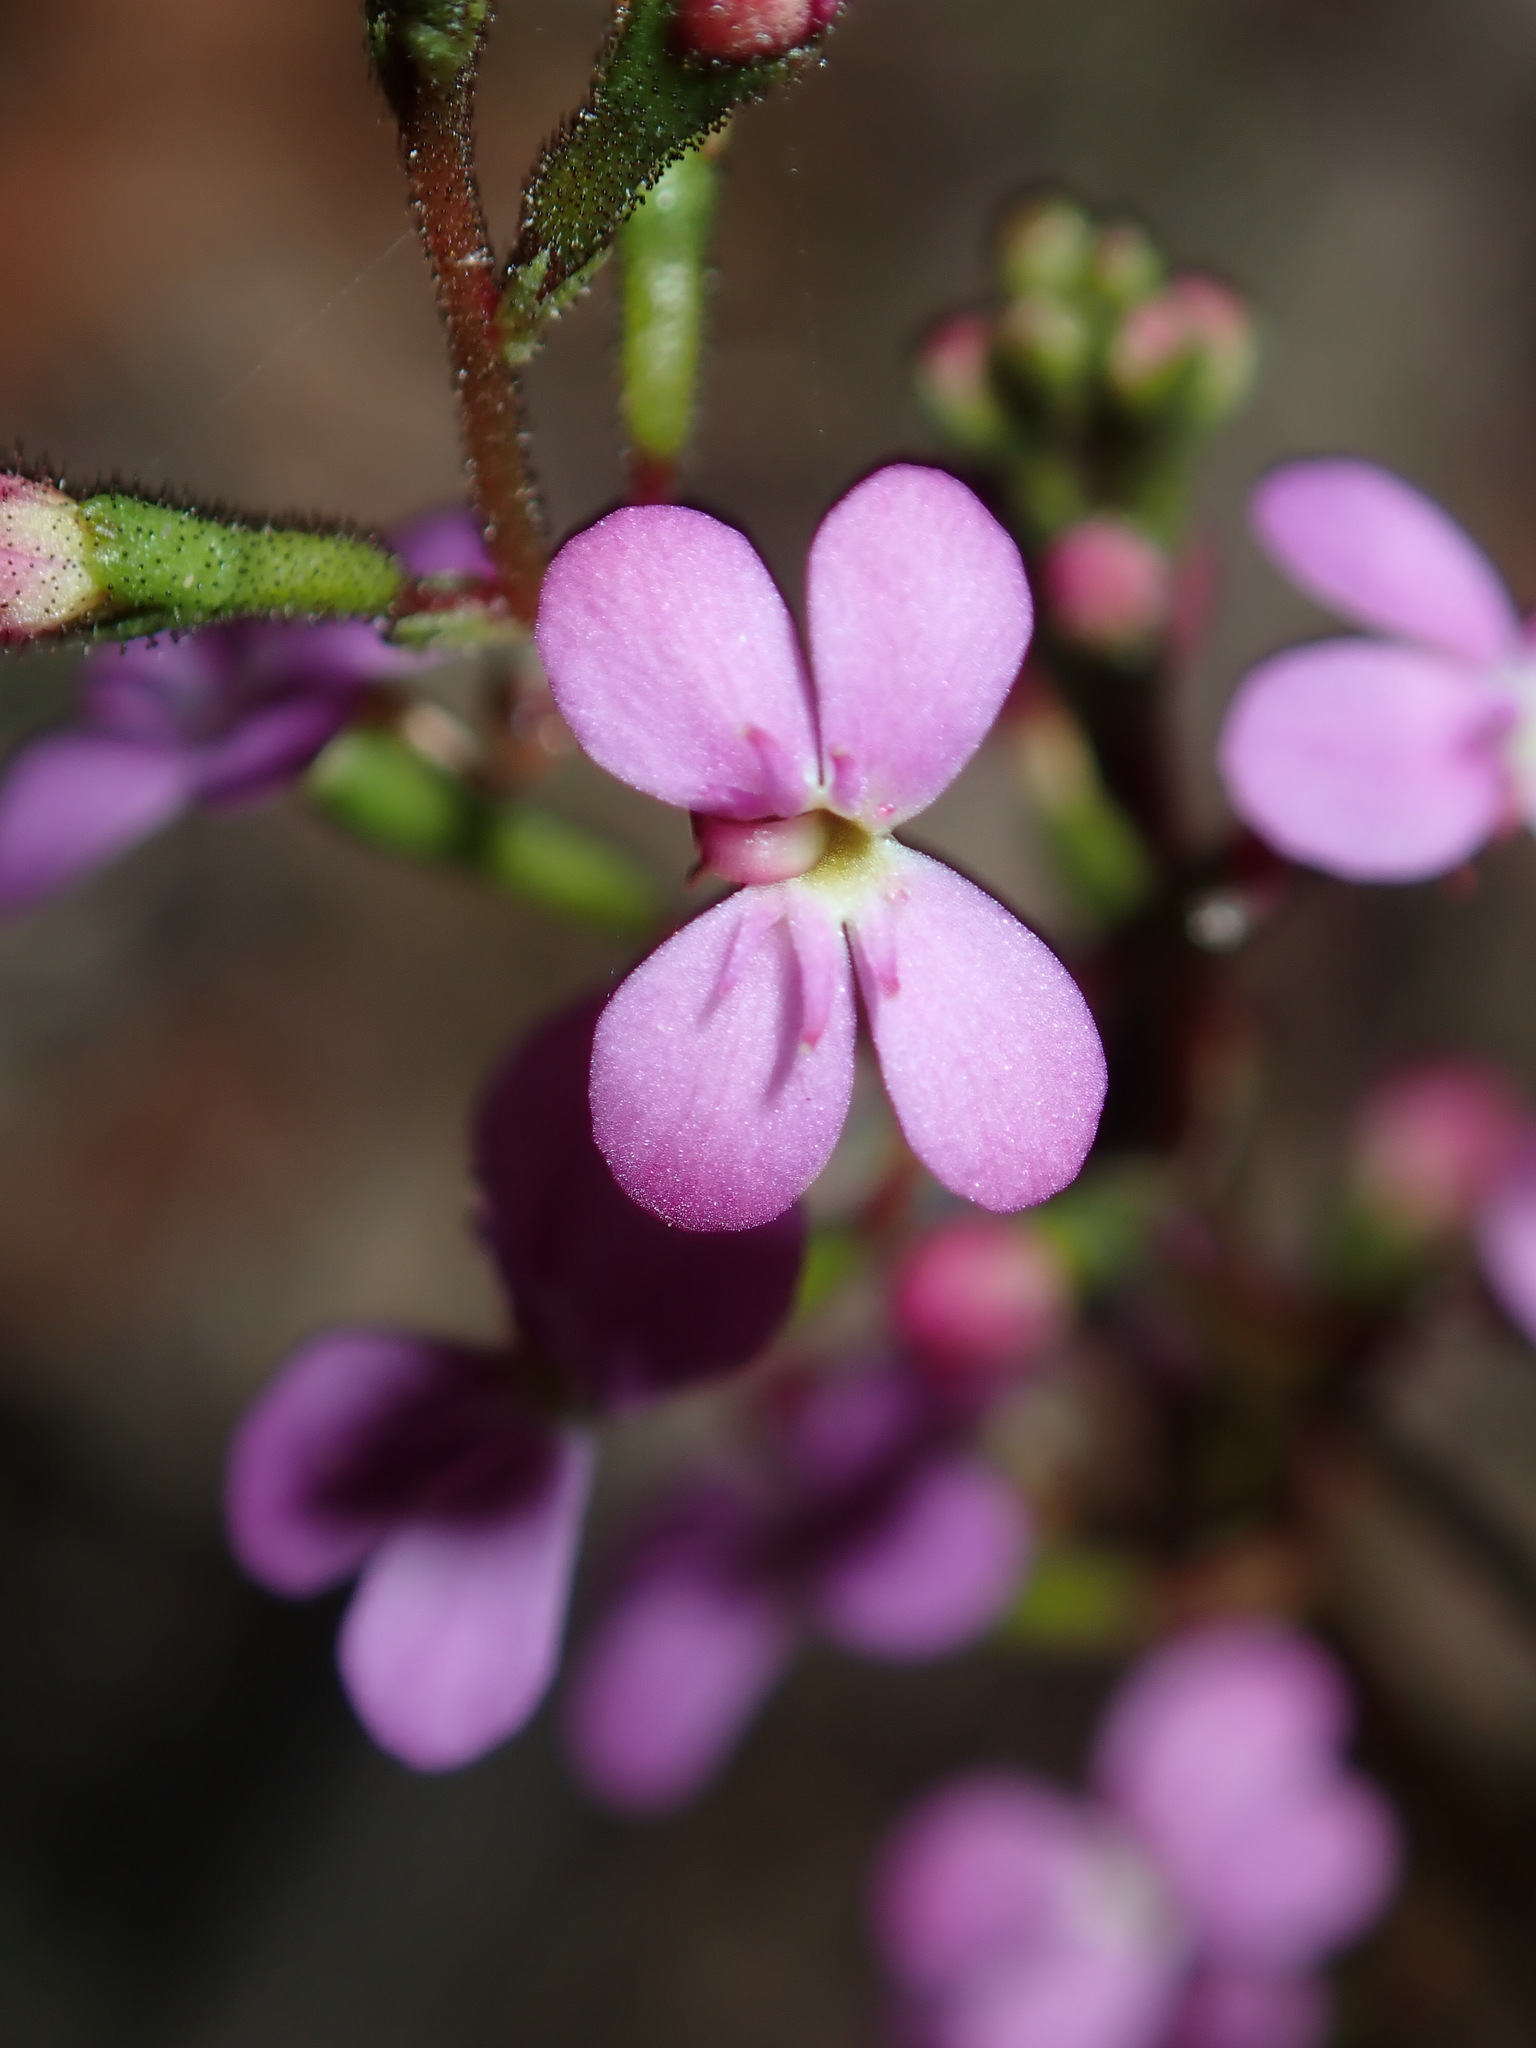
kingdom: Plantae
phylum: Tracheophyta
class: Magnoliopsida
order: Asterales
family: Stylidiaceae
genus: Stylidium
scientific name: Stylidium lineare
